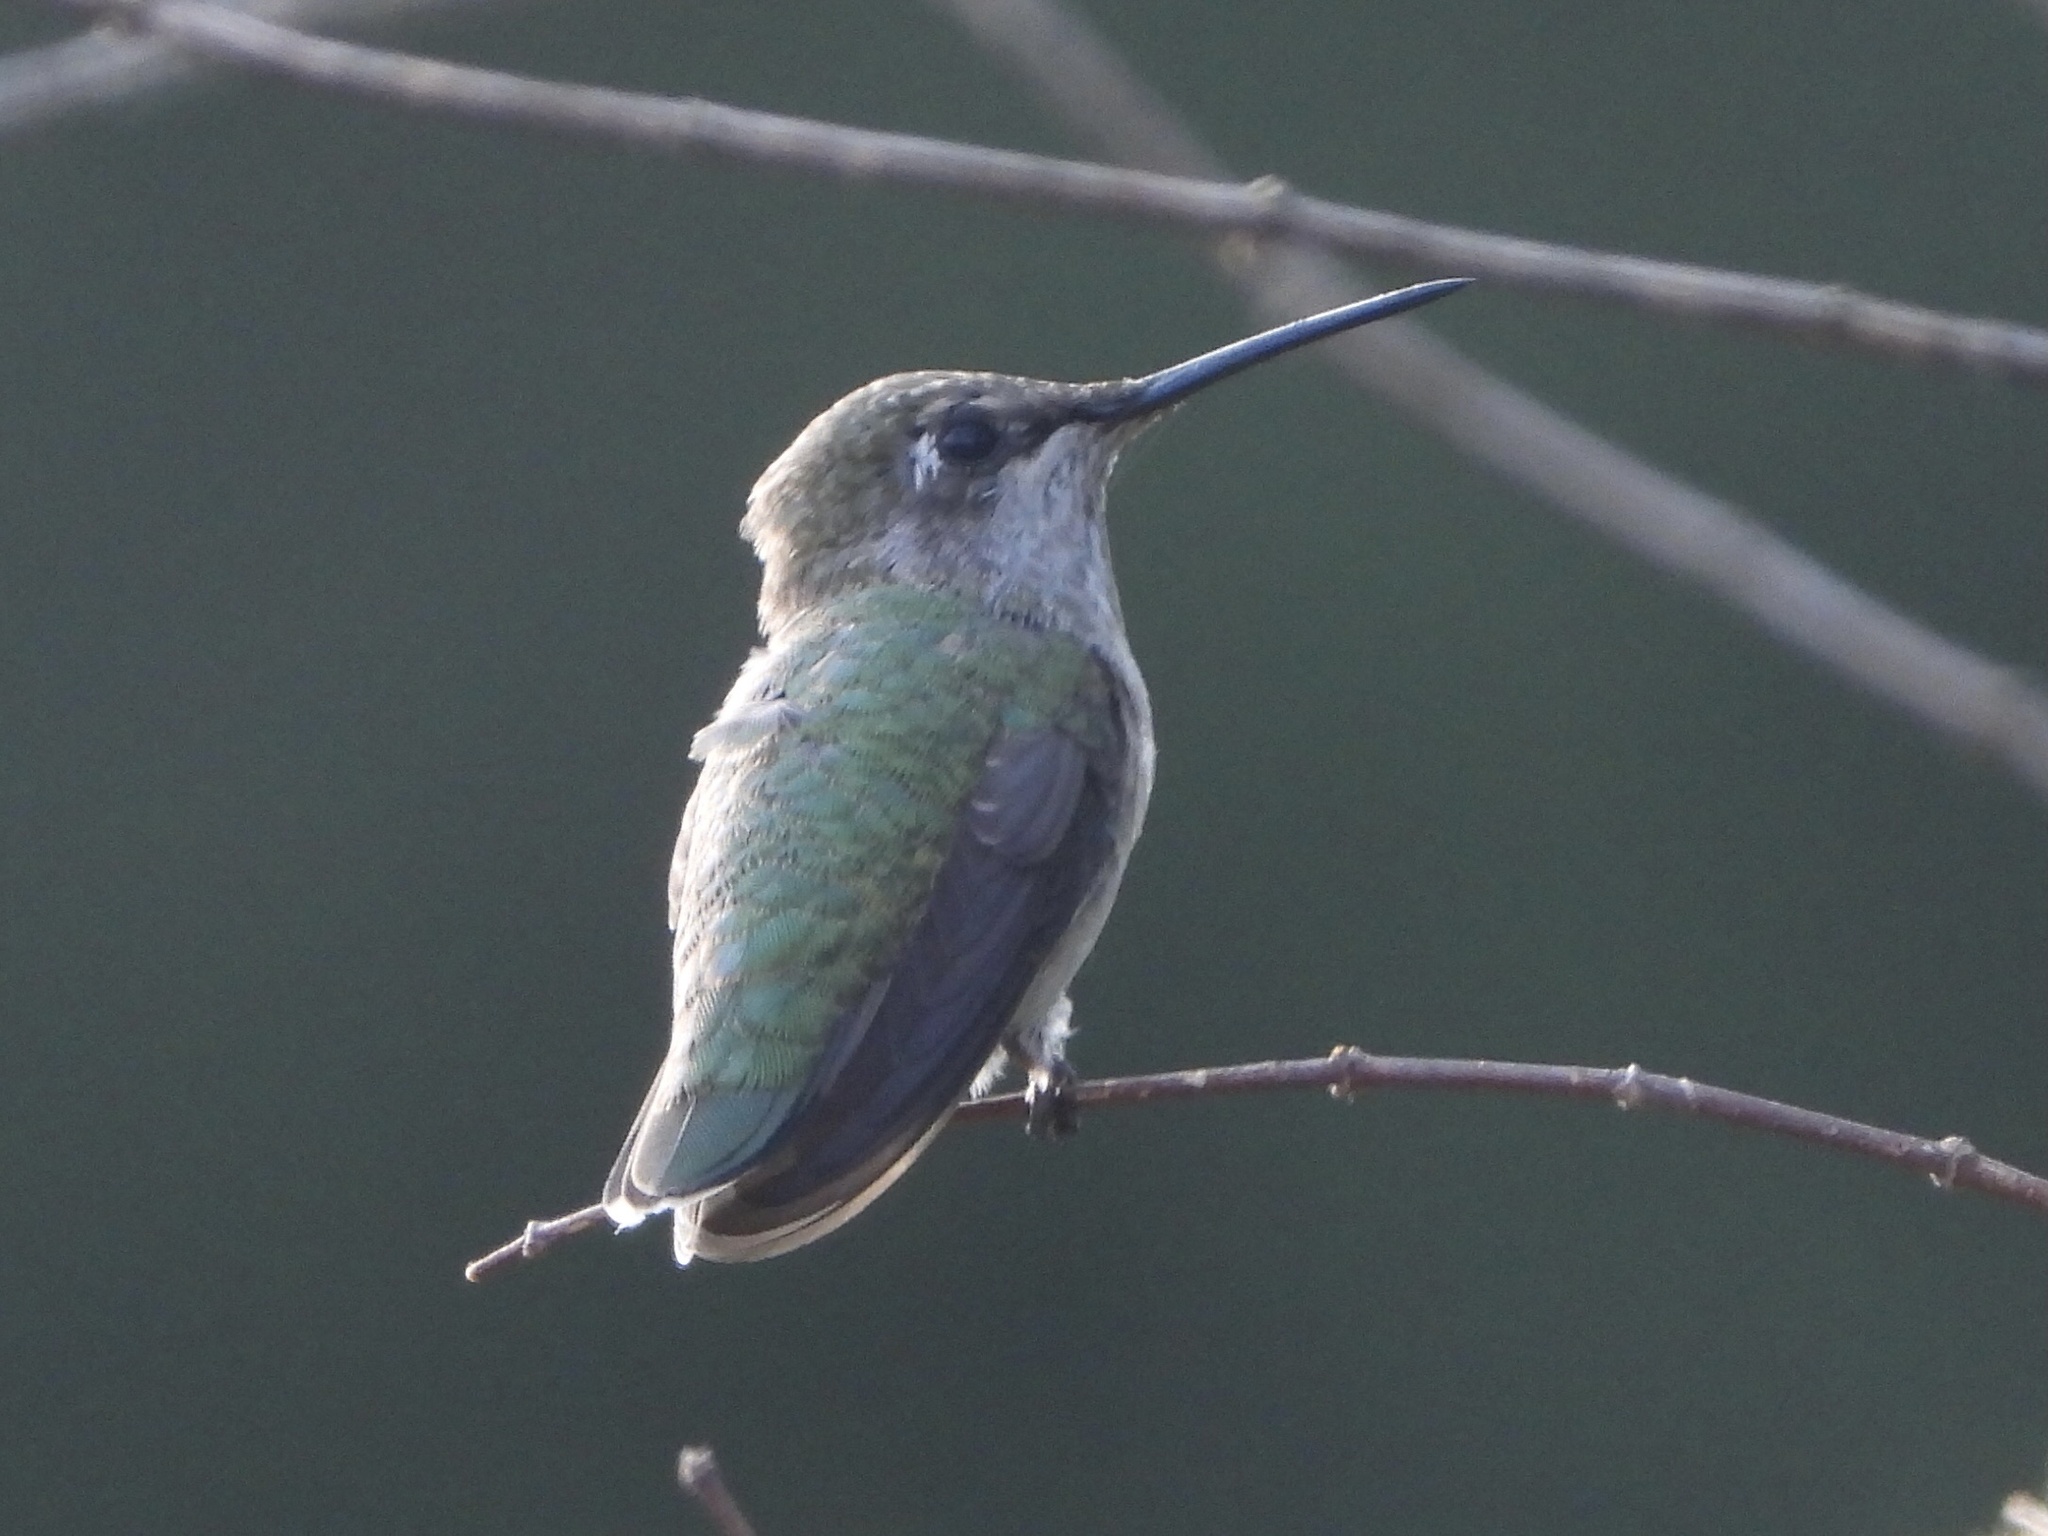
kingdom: Animalia
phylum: Chordata
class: Aves
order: Apodiformes
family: Trochilidae
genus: Calypte
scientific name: Calypte anna
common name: Anna's hummingbird
